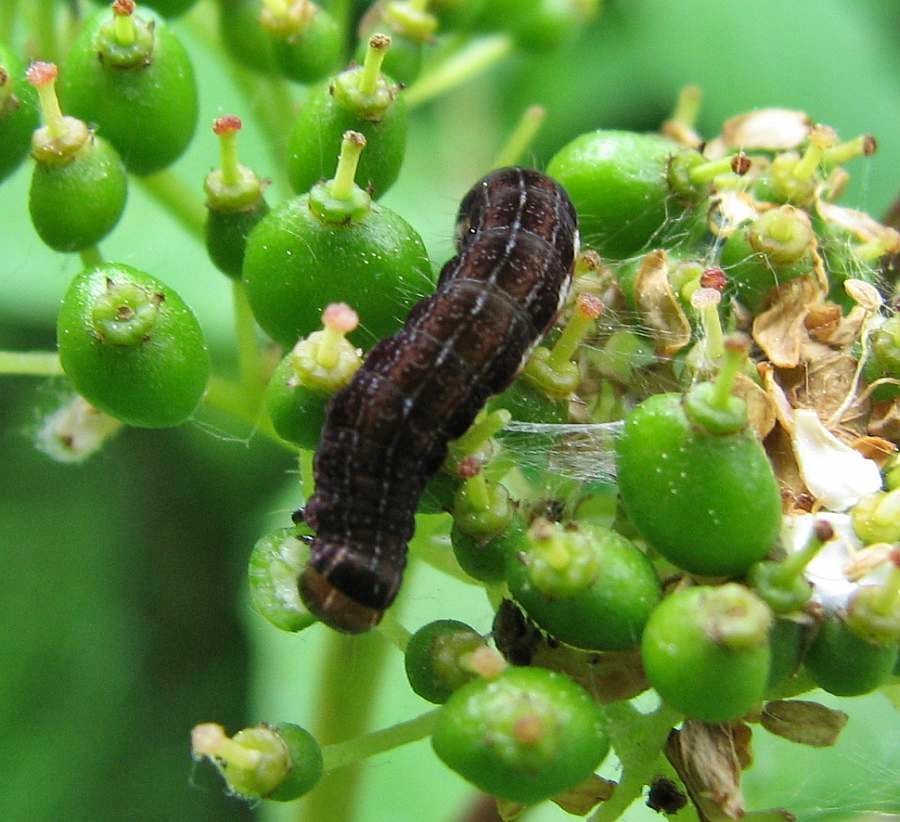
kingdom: Animalia
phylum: Arthropoda
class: Insecta
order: Lepidoptera
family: Noctuidae
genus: Eupsilia
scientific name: Eupsilia sidus
